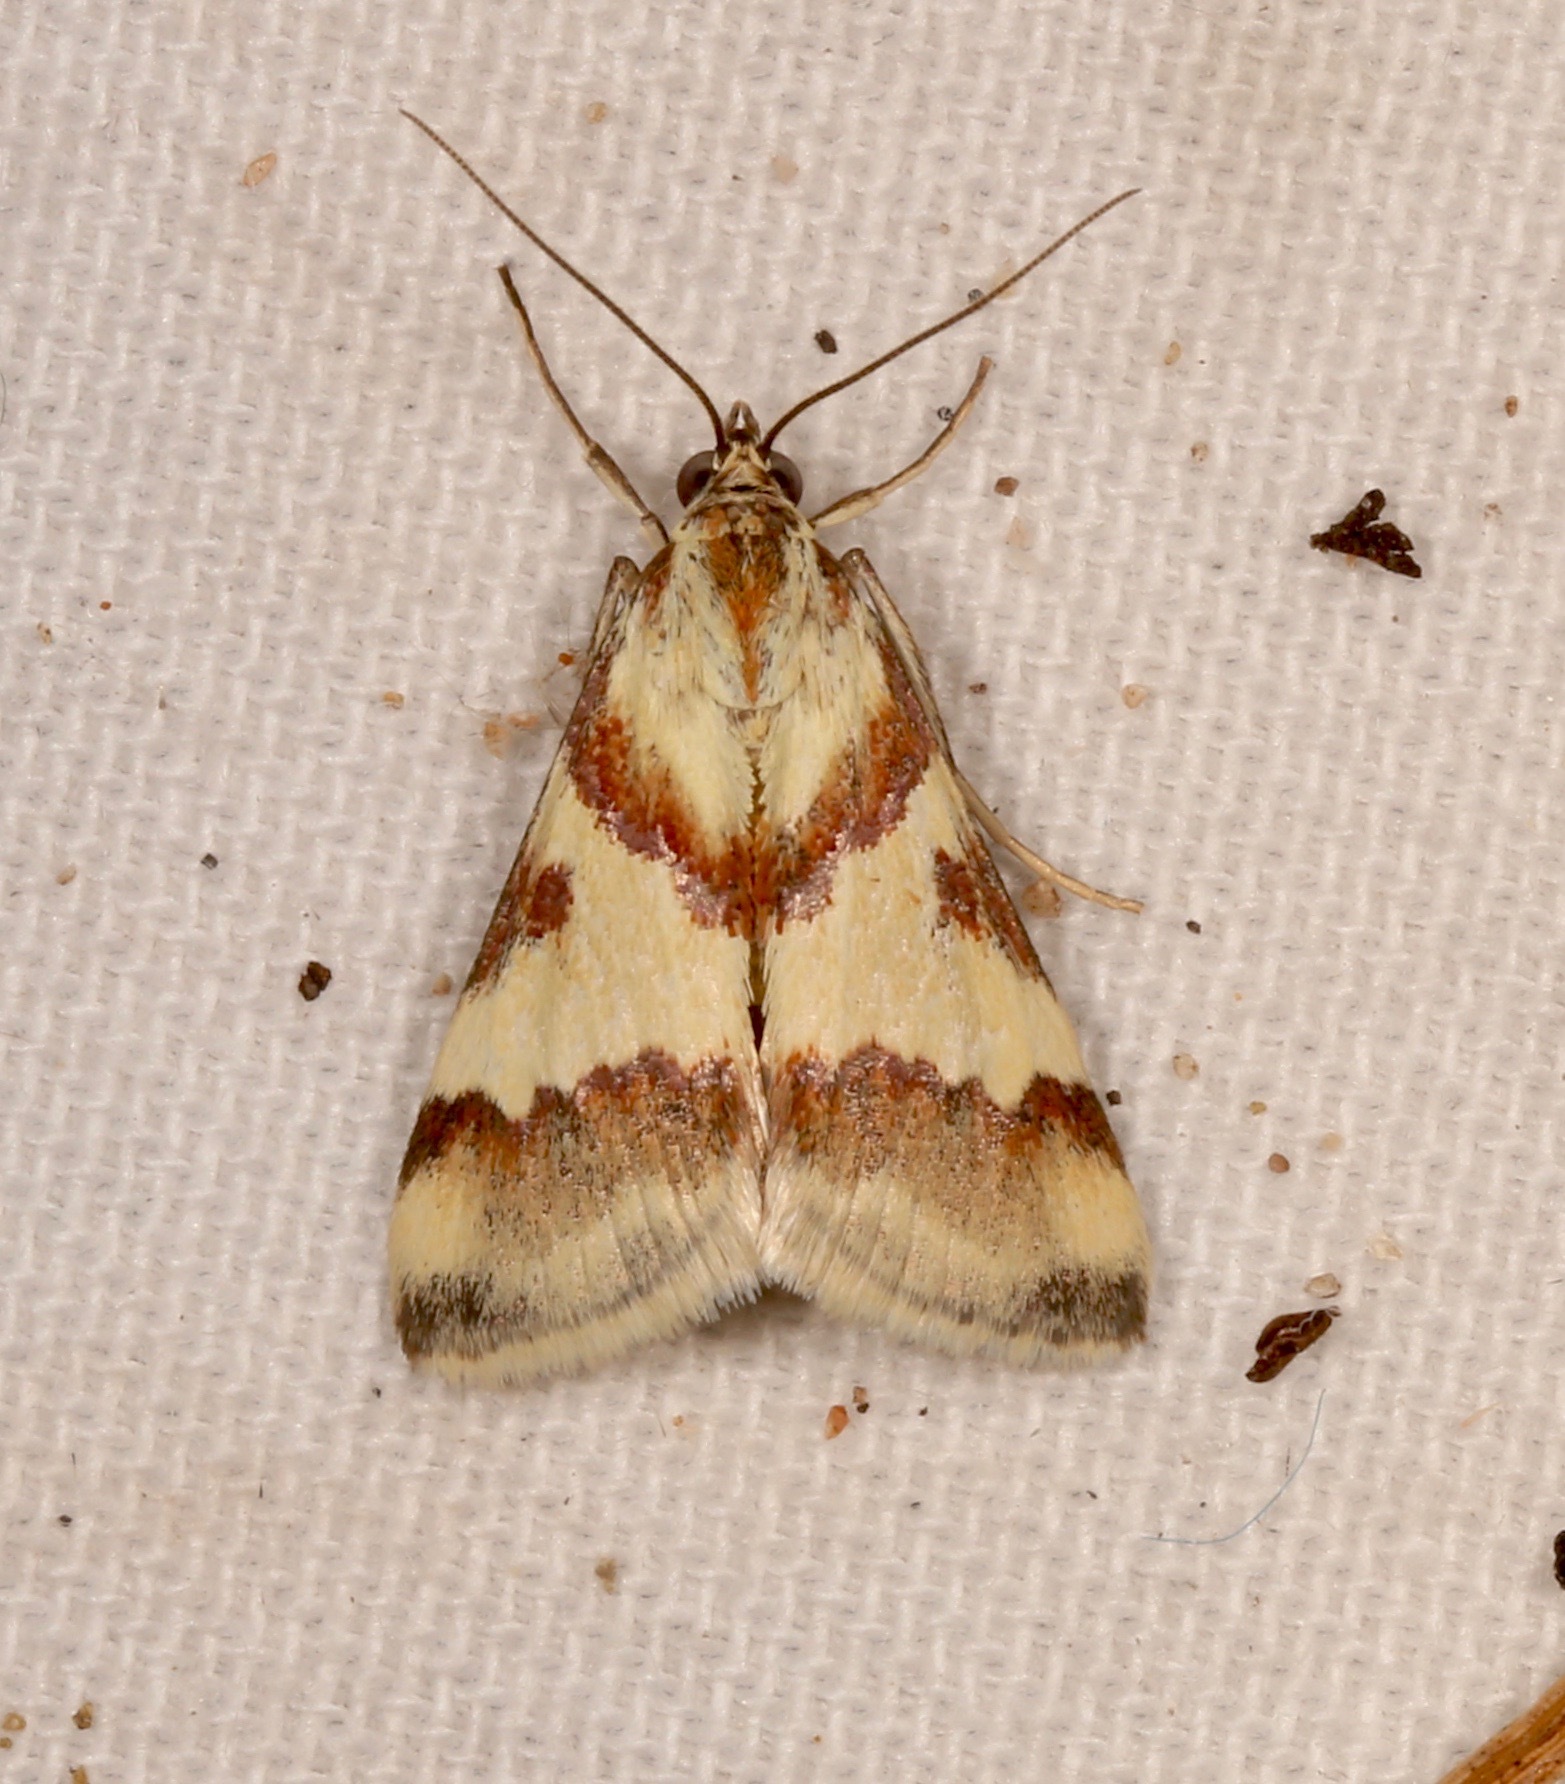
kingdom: Animalia
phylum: Arthropoda
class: Insecta
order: Lepidoptera
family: Crambidae
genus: Noctuelia
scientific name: Noctuelia Mimoschinia rufofascialis
